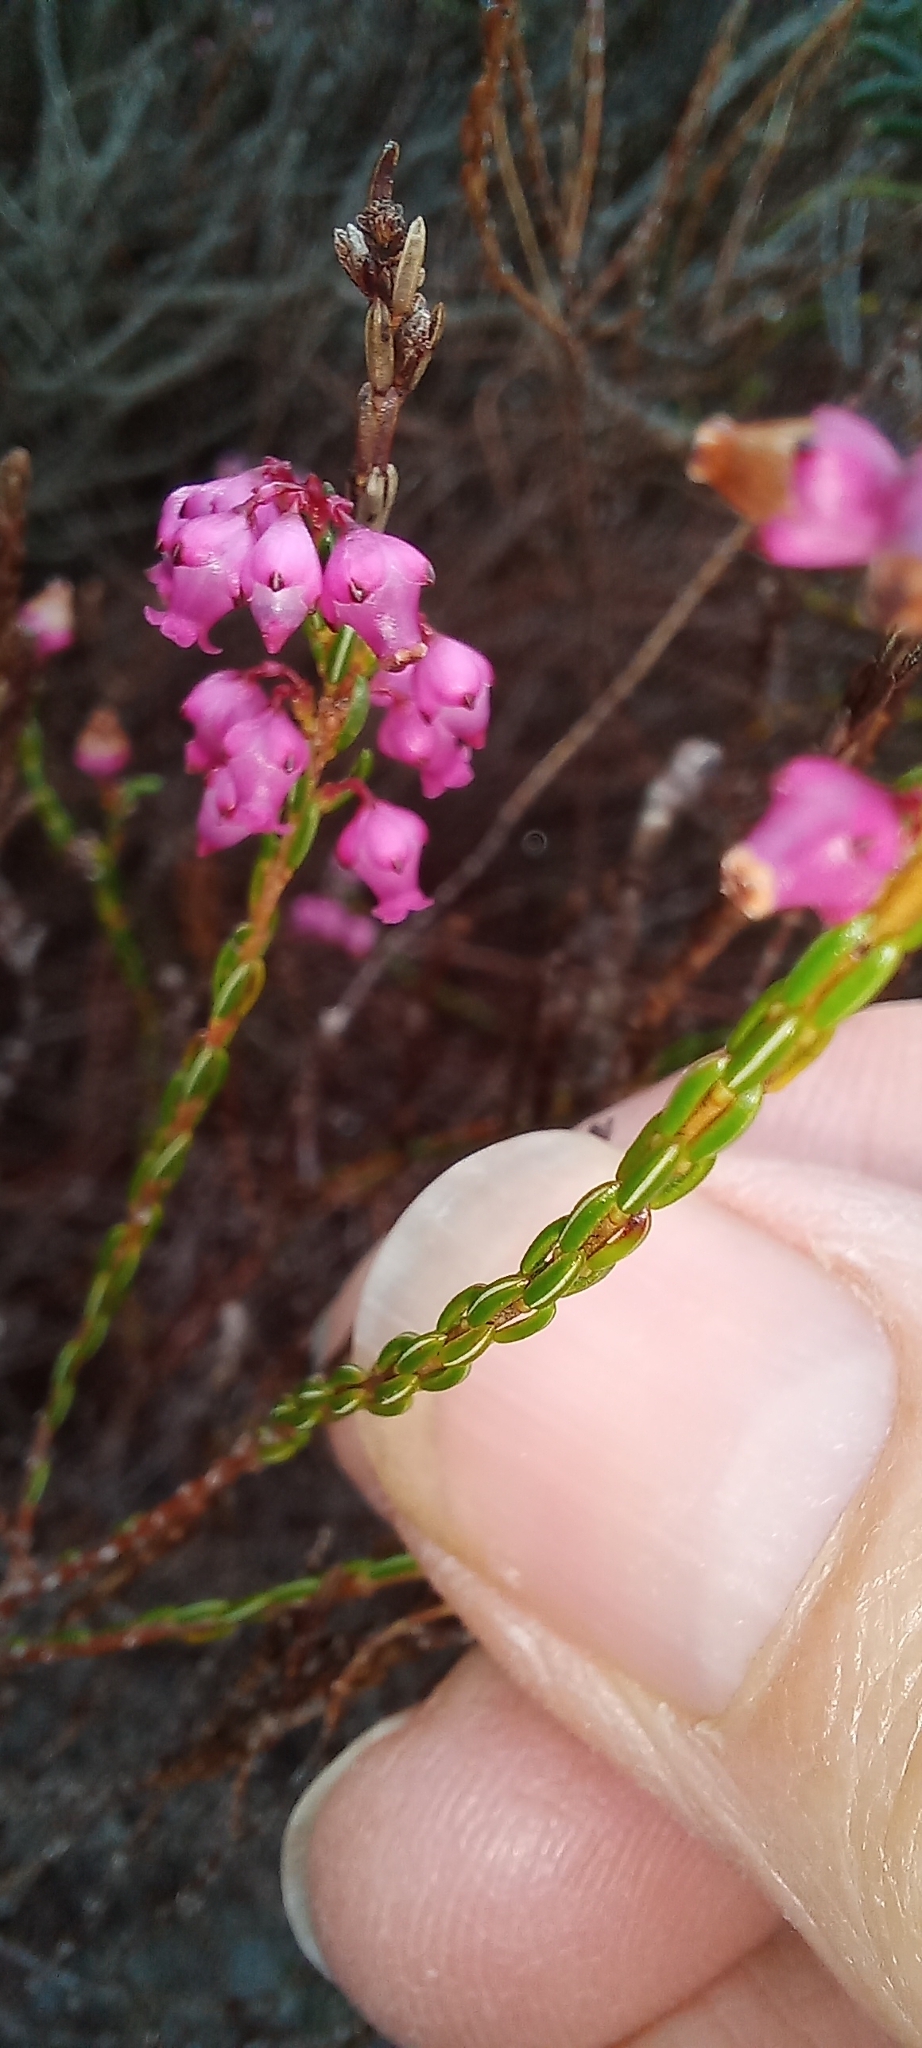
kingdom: Plantae
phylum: Tracheophyta
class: Magnoliopsida
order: Ericales
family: Ericaceae
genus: Erica
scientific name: Erica rhopalantha
